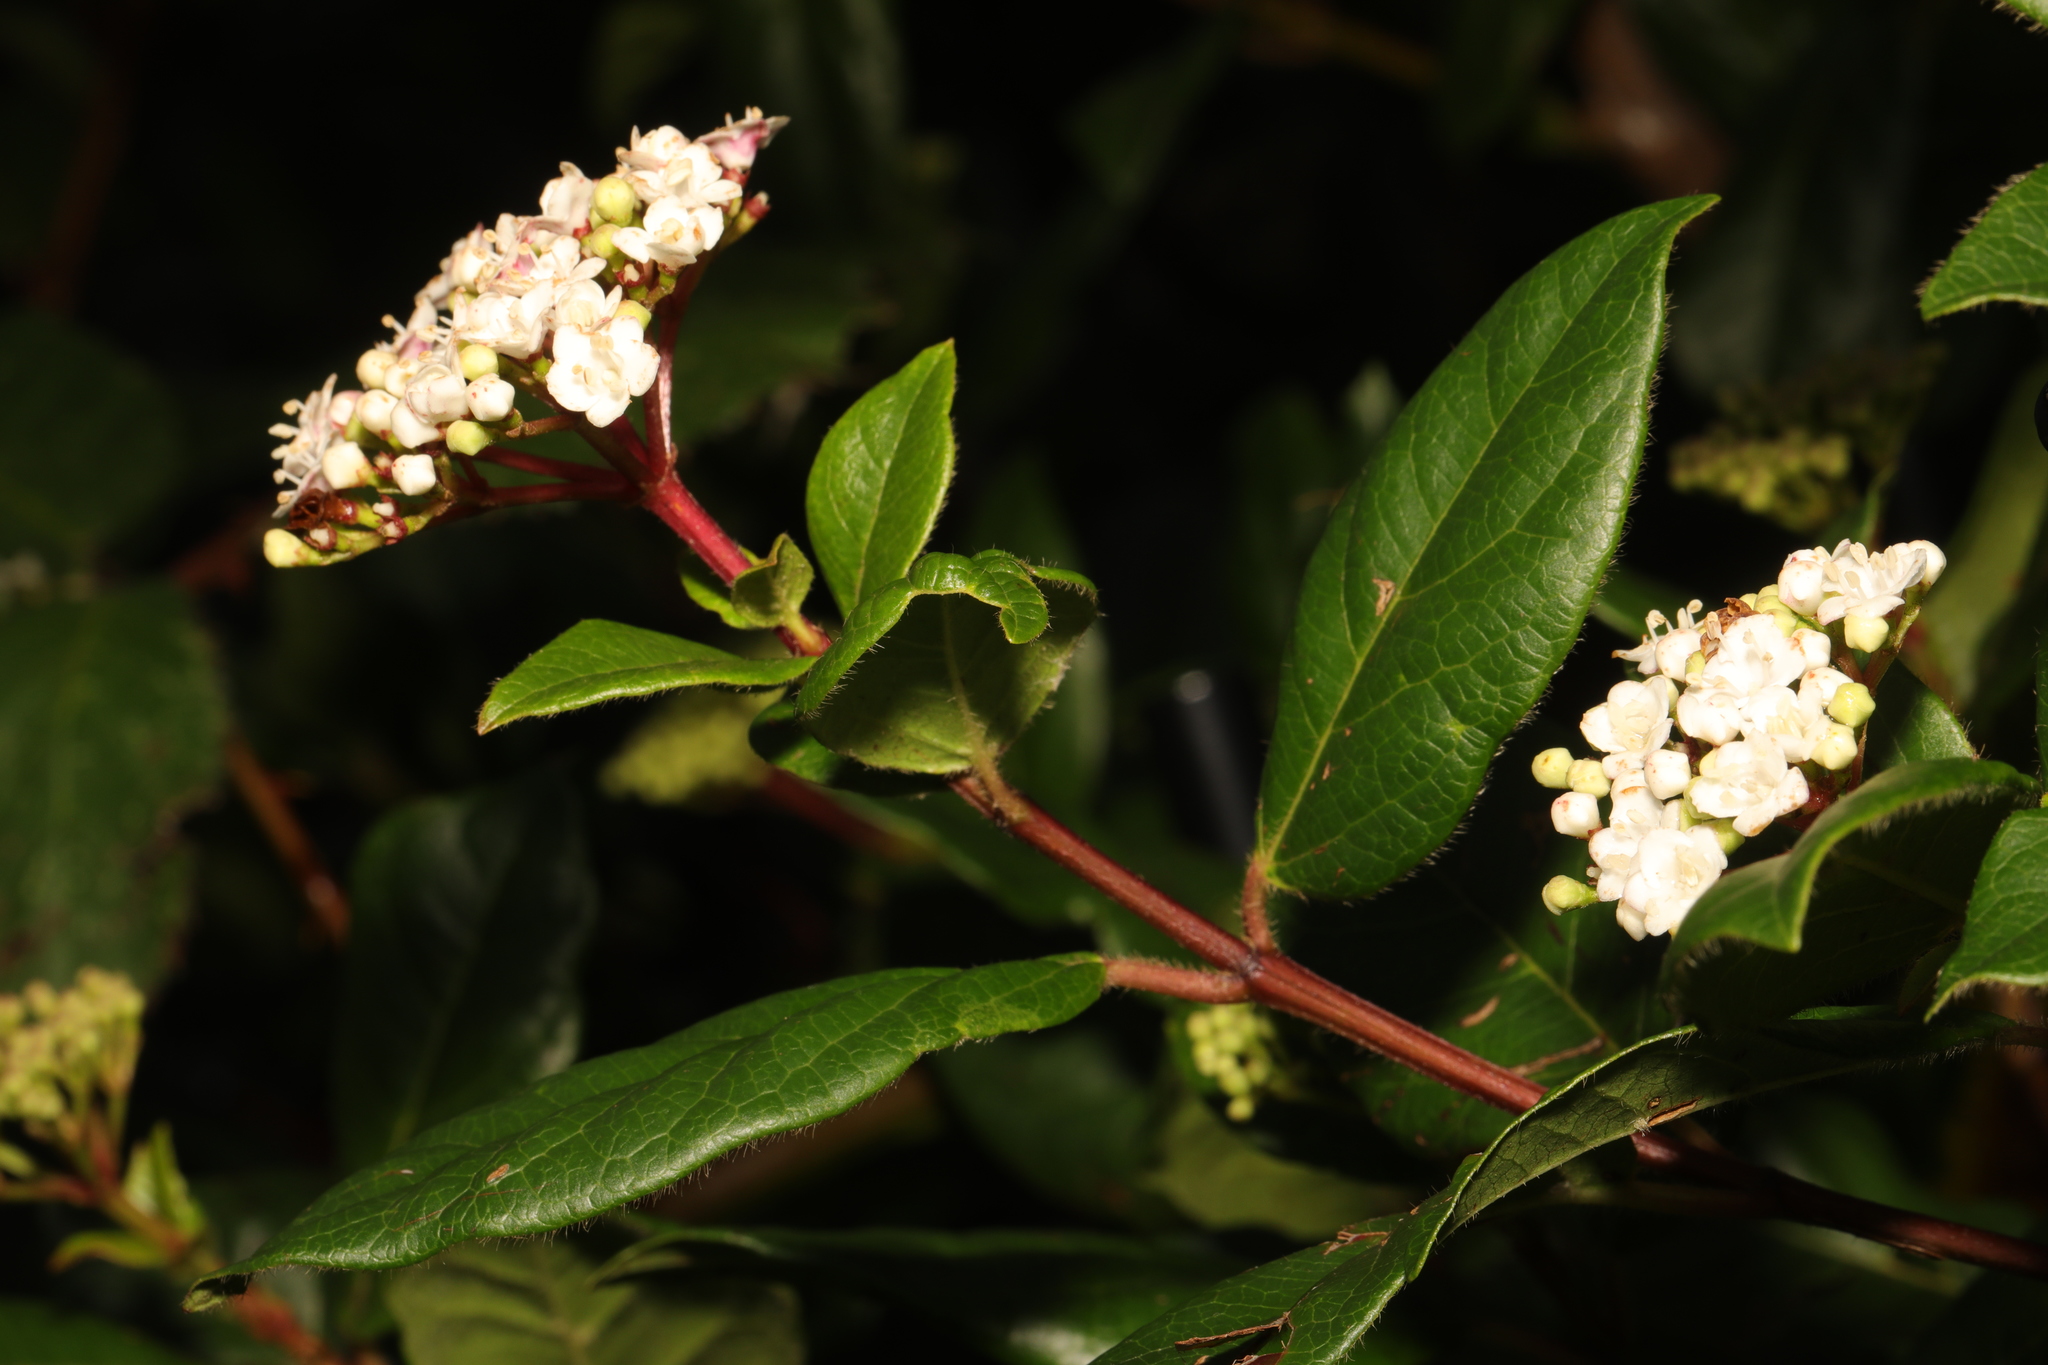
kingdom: Plantae
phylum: Tracheophyta
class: Magnoliopsida
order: Dipsacales
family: Viburnaceae
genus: Viburnum
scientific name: Viburnum tinus
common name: Laurustinus
